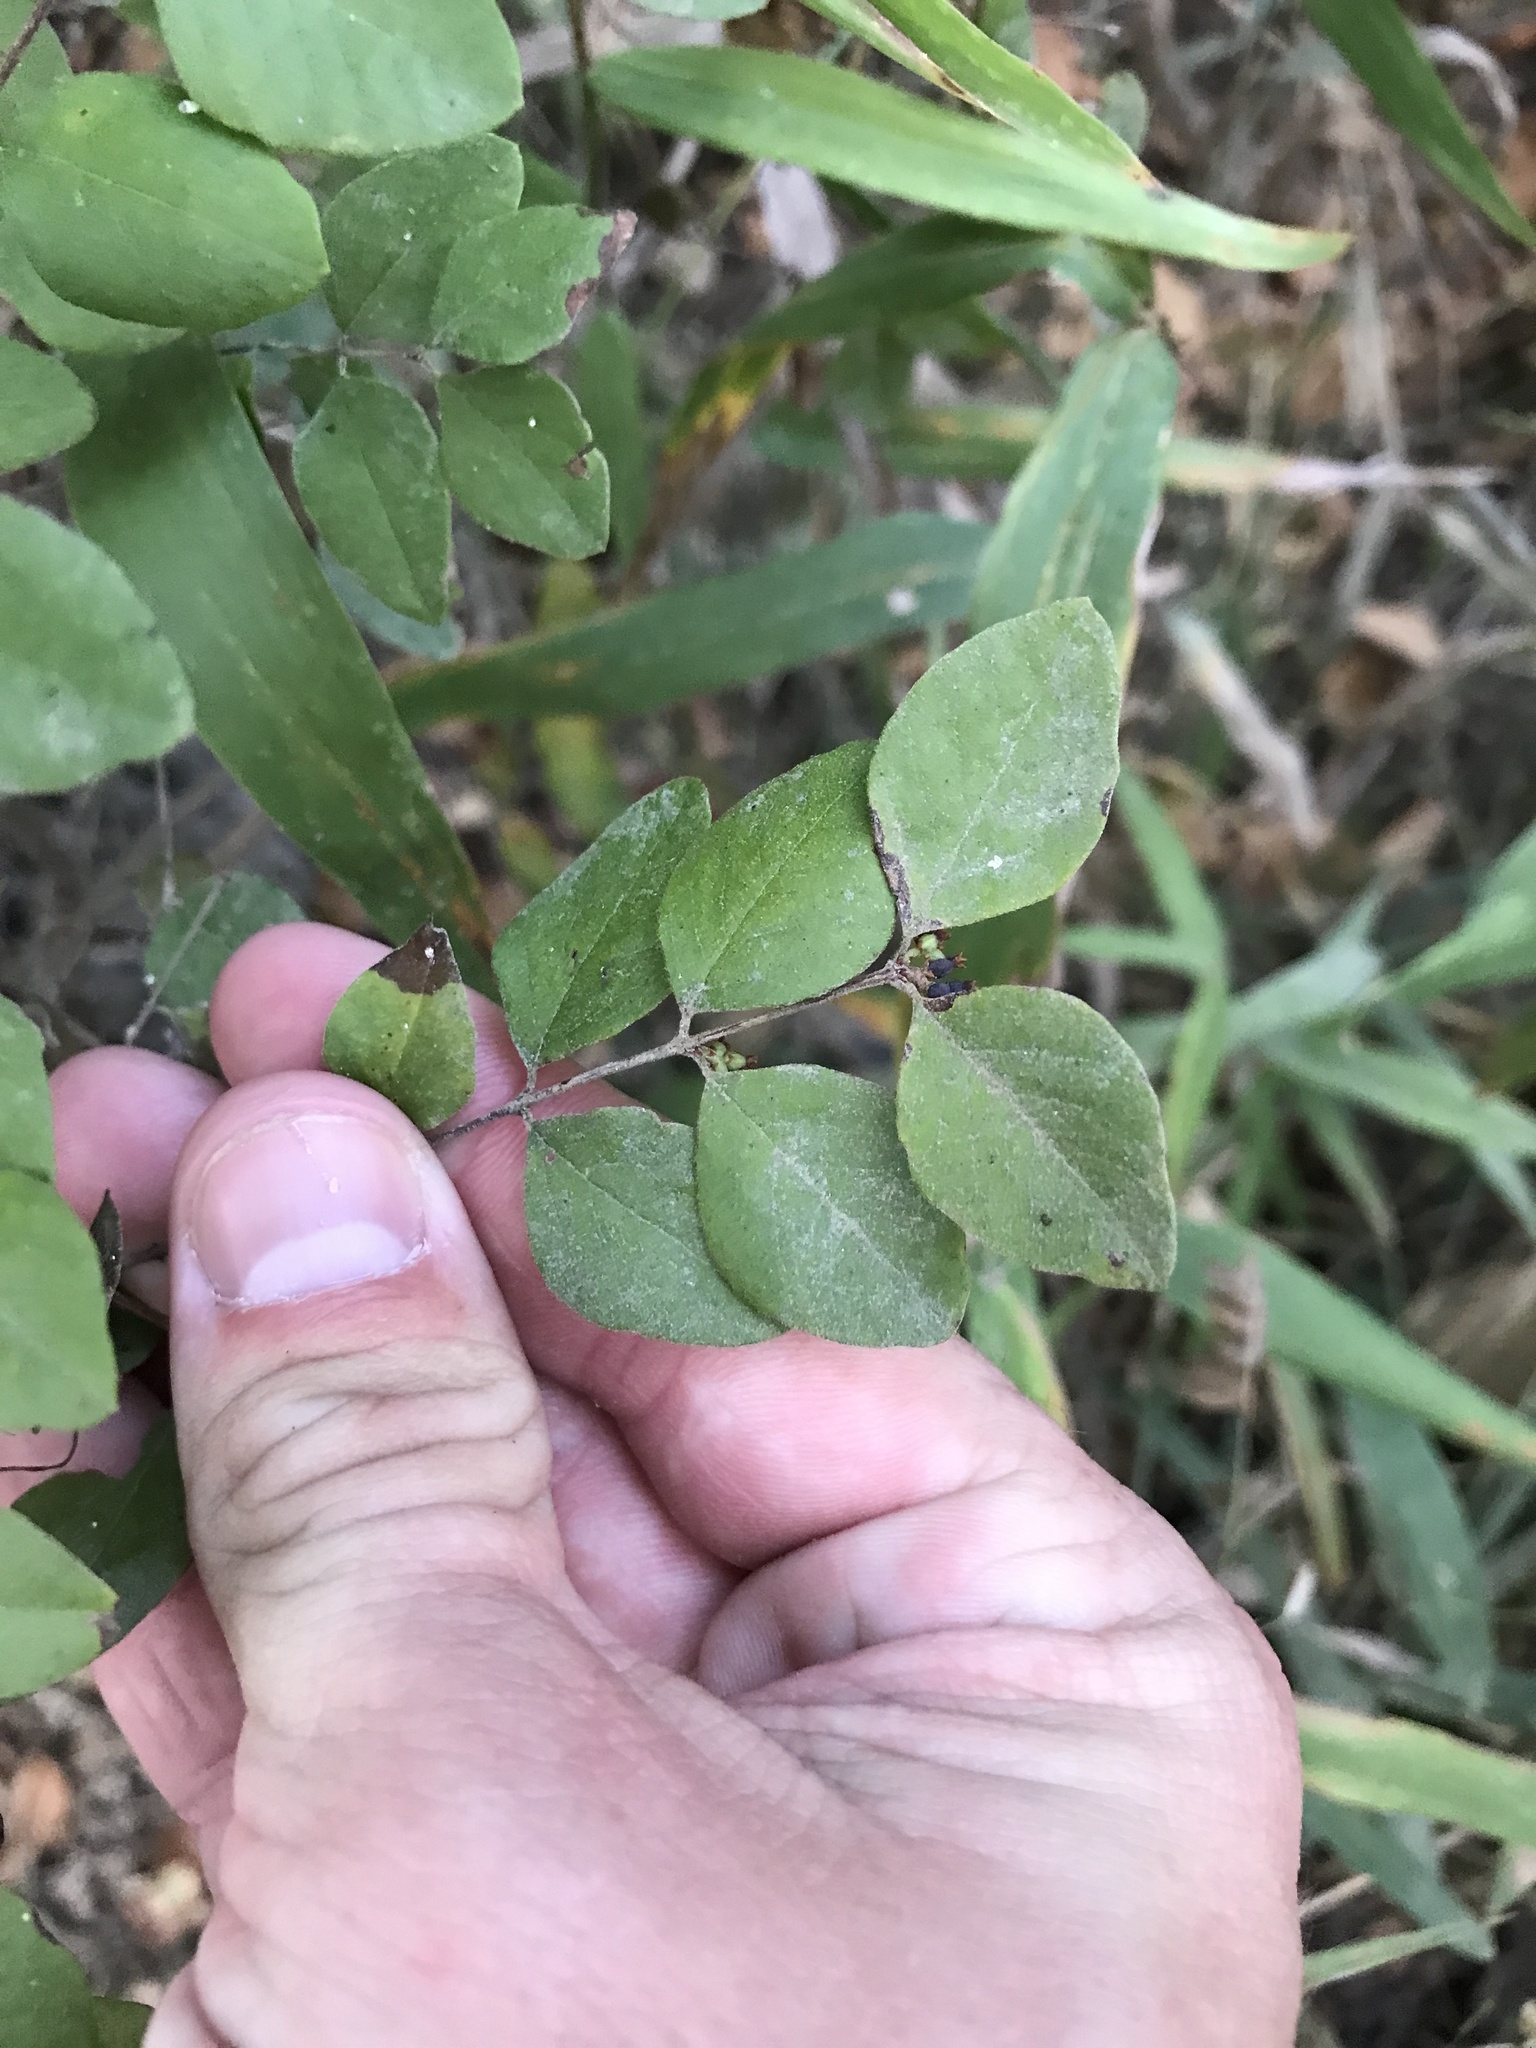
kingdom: Plantae
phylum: Tracheophyta
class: Magnoliopsida
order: Dipsacales
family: Caprifoliaceae
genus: Symphoricarpos
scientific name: Symphoricarpos orbiculatus
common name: Coralberry
